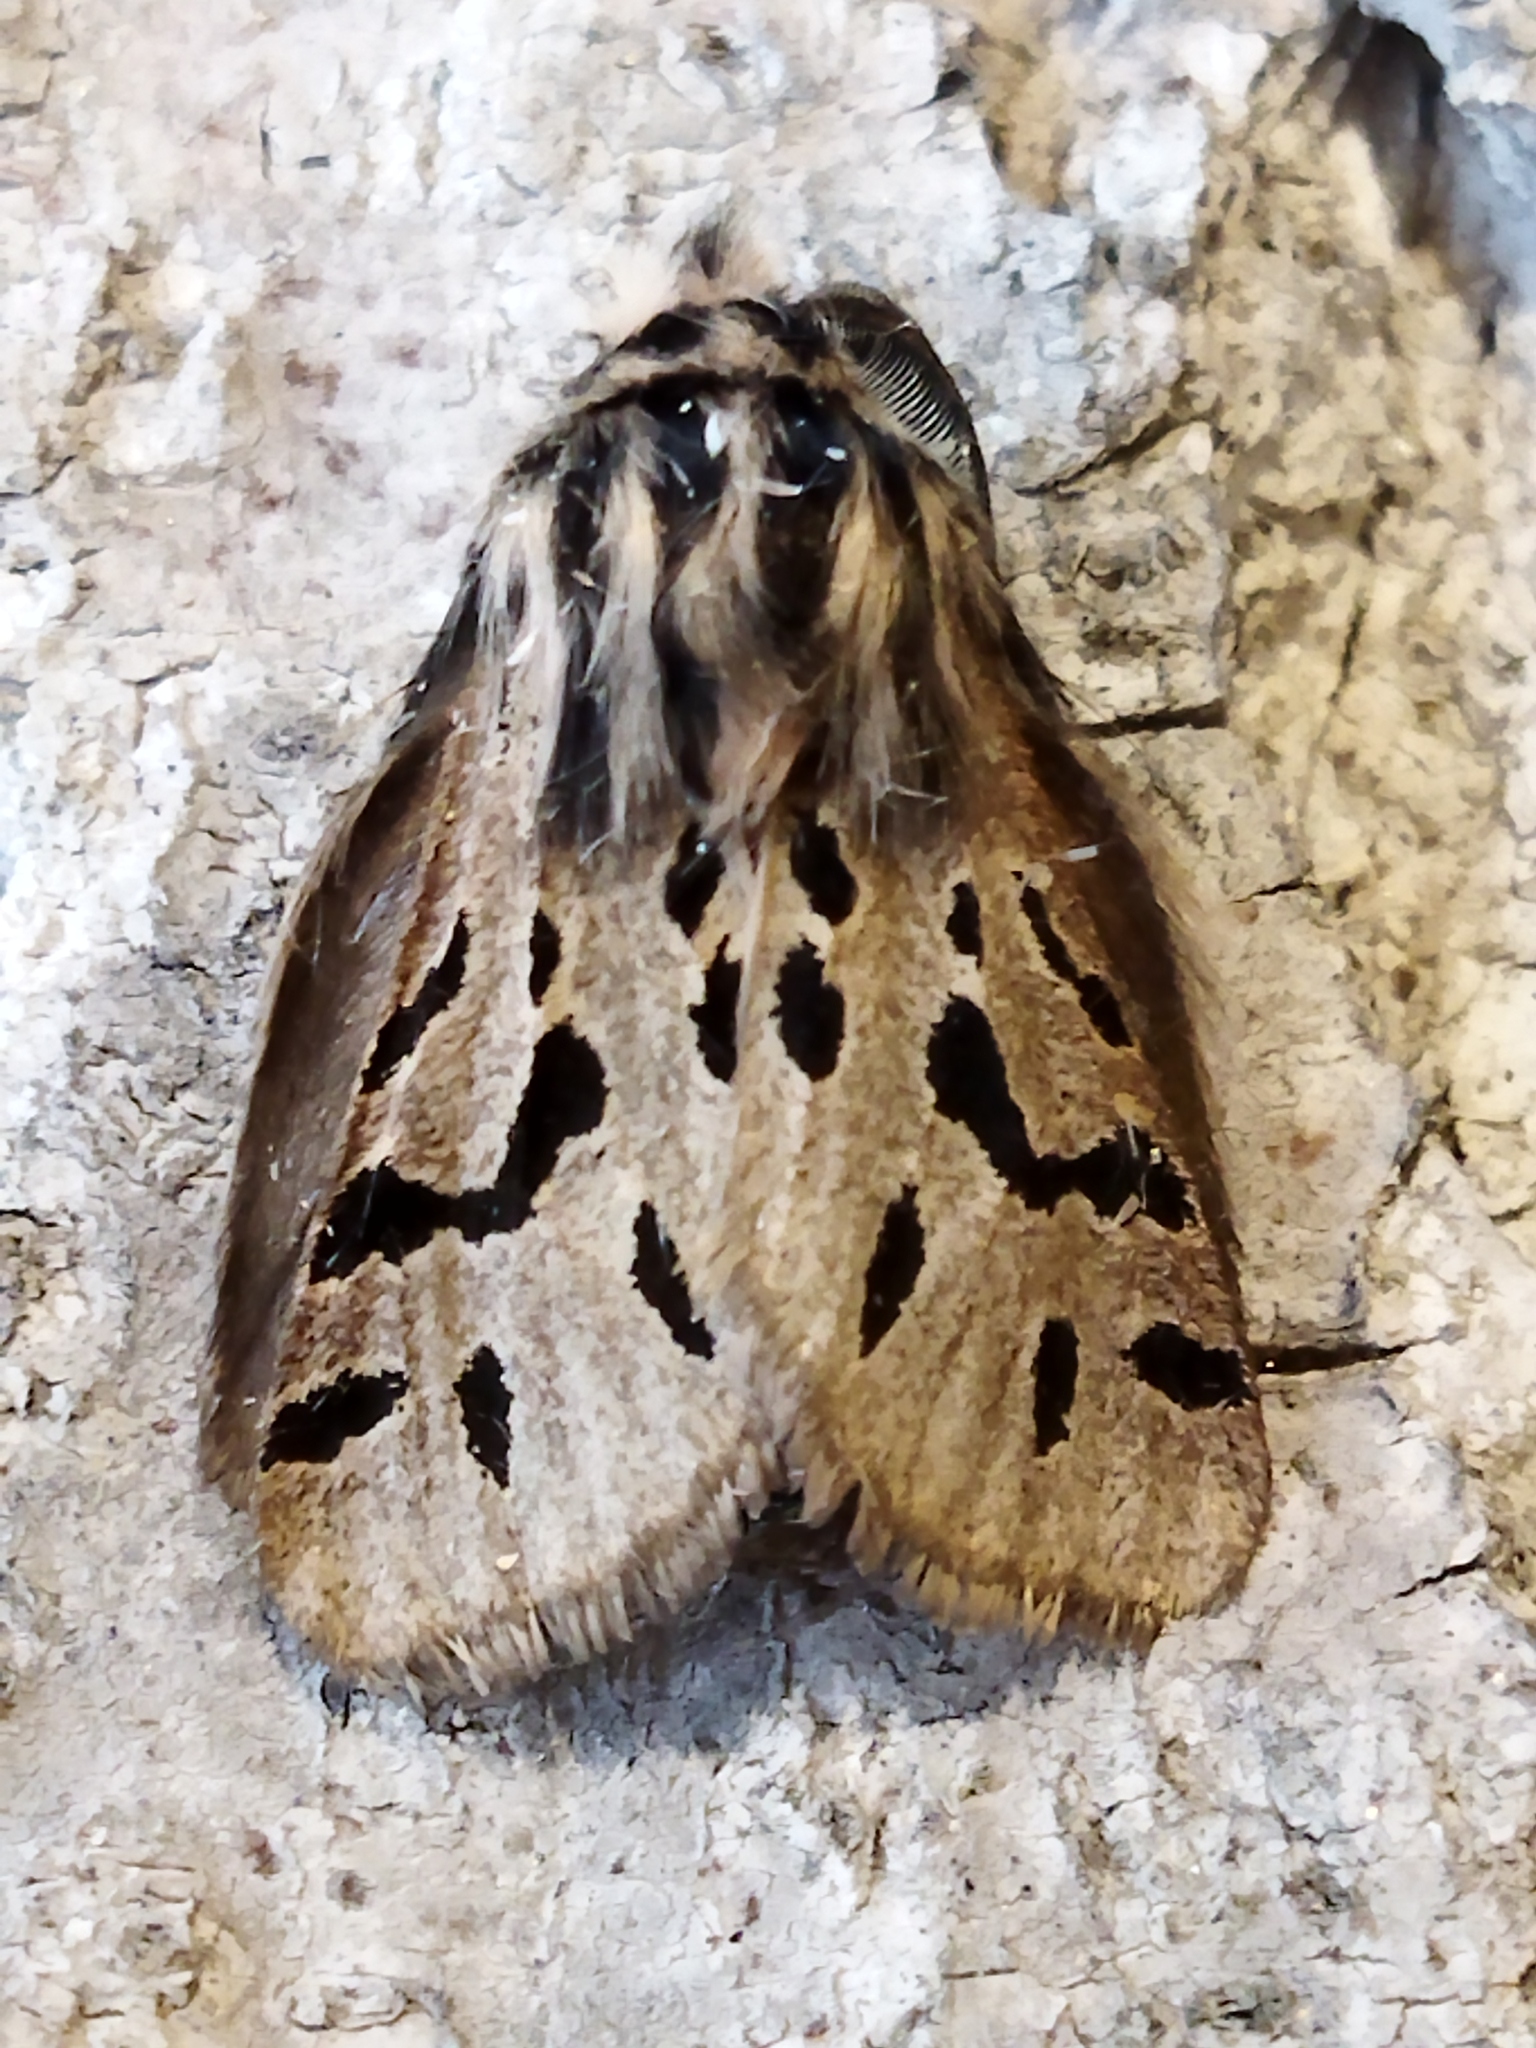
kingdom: Animalia
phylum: Arthropoda
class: Insecta
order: Lepidoptera
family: Erebidae
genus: Ocnogyna
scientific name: Ocnogyna parasita
